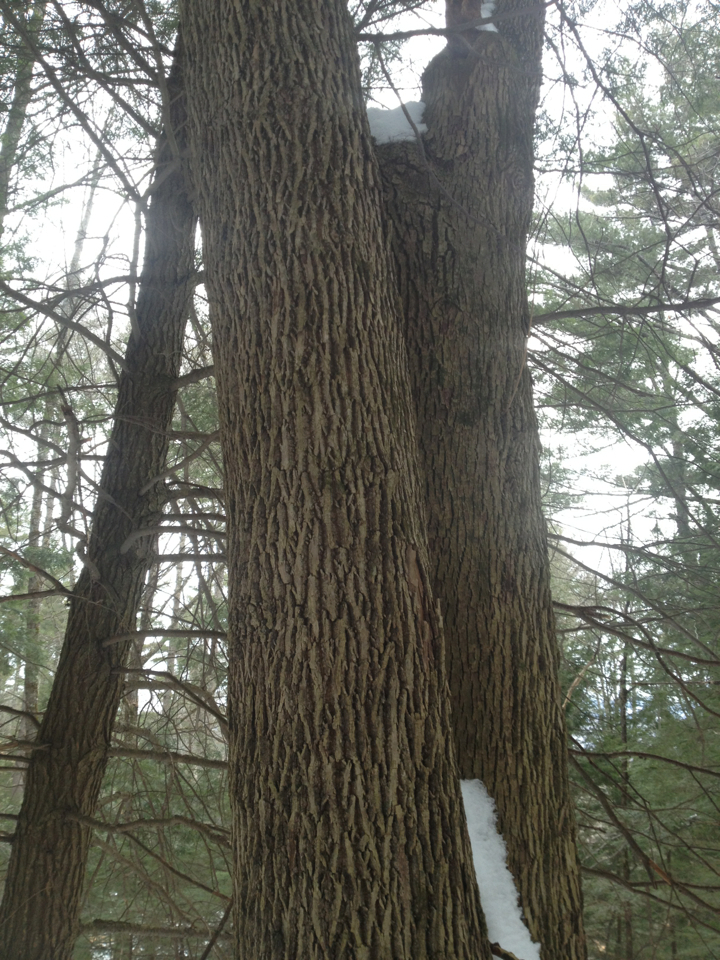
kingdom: Plantae
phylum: Tracheophyta
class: Magnoliopsida
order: Lamiales
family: Oleaceae
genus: Fraxinus
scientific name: Fraxinus americana
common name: White ash
